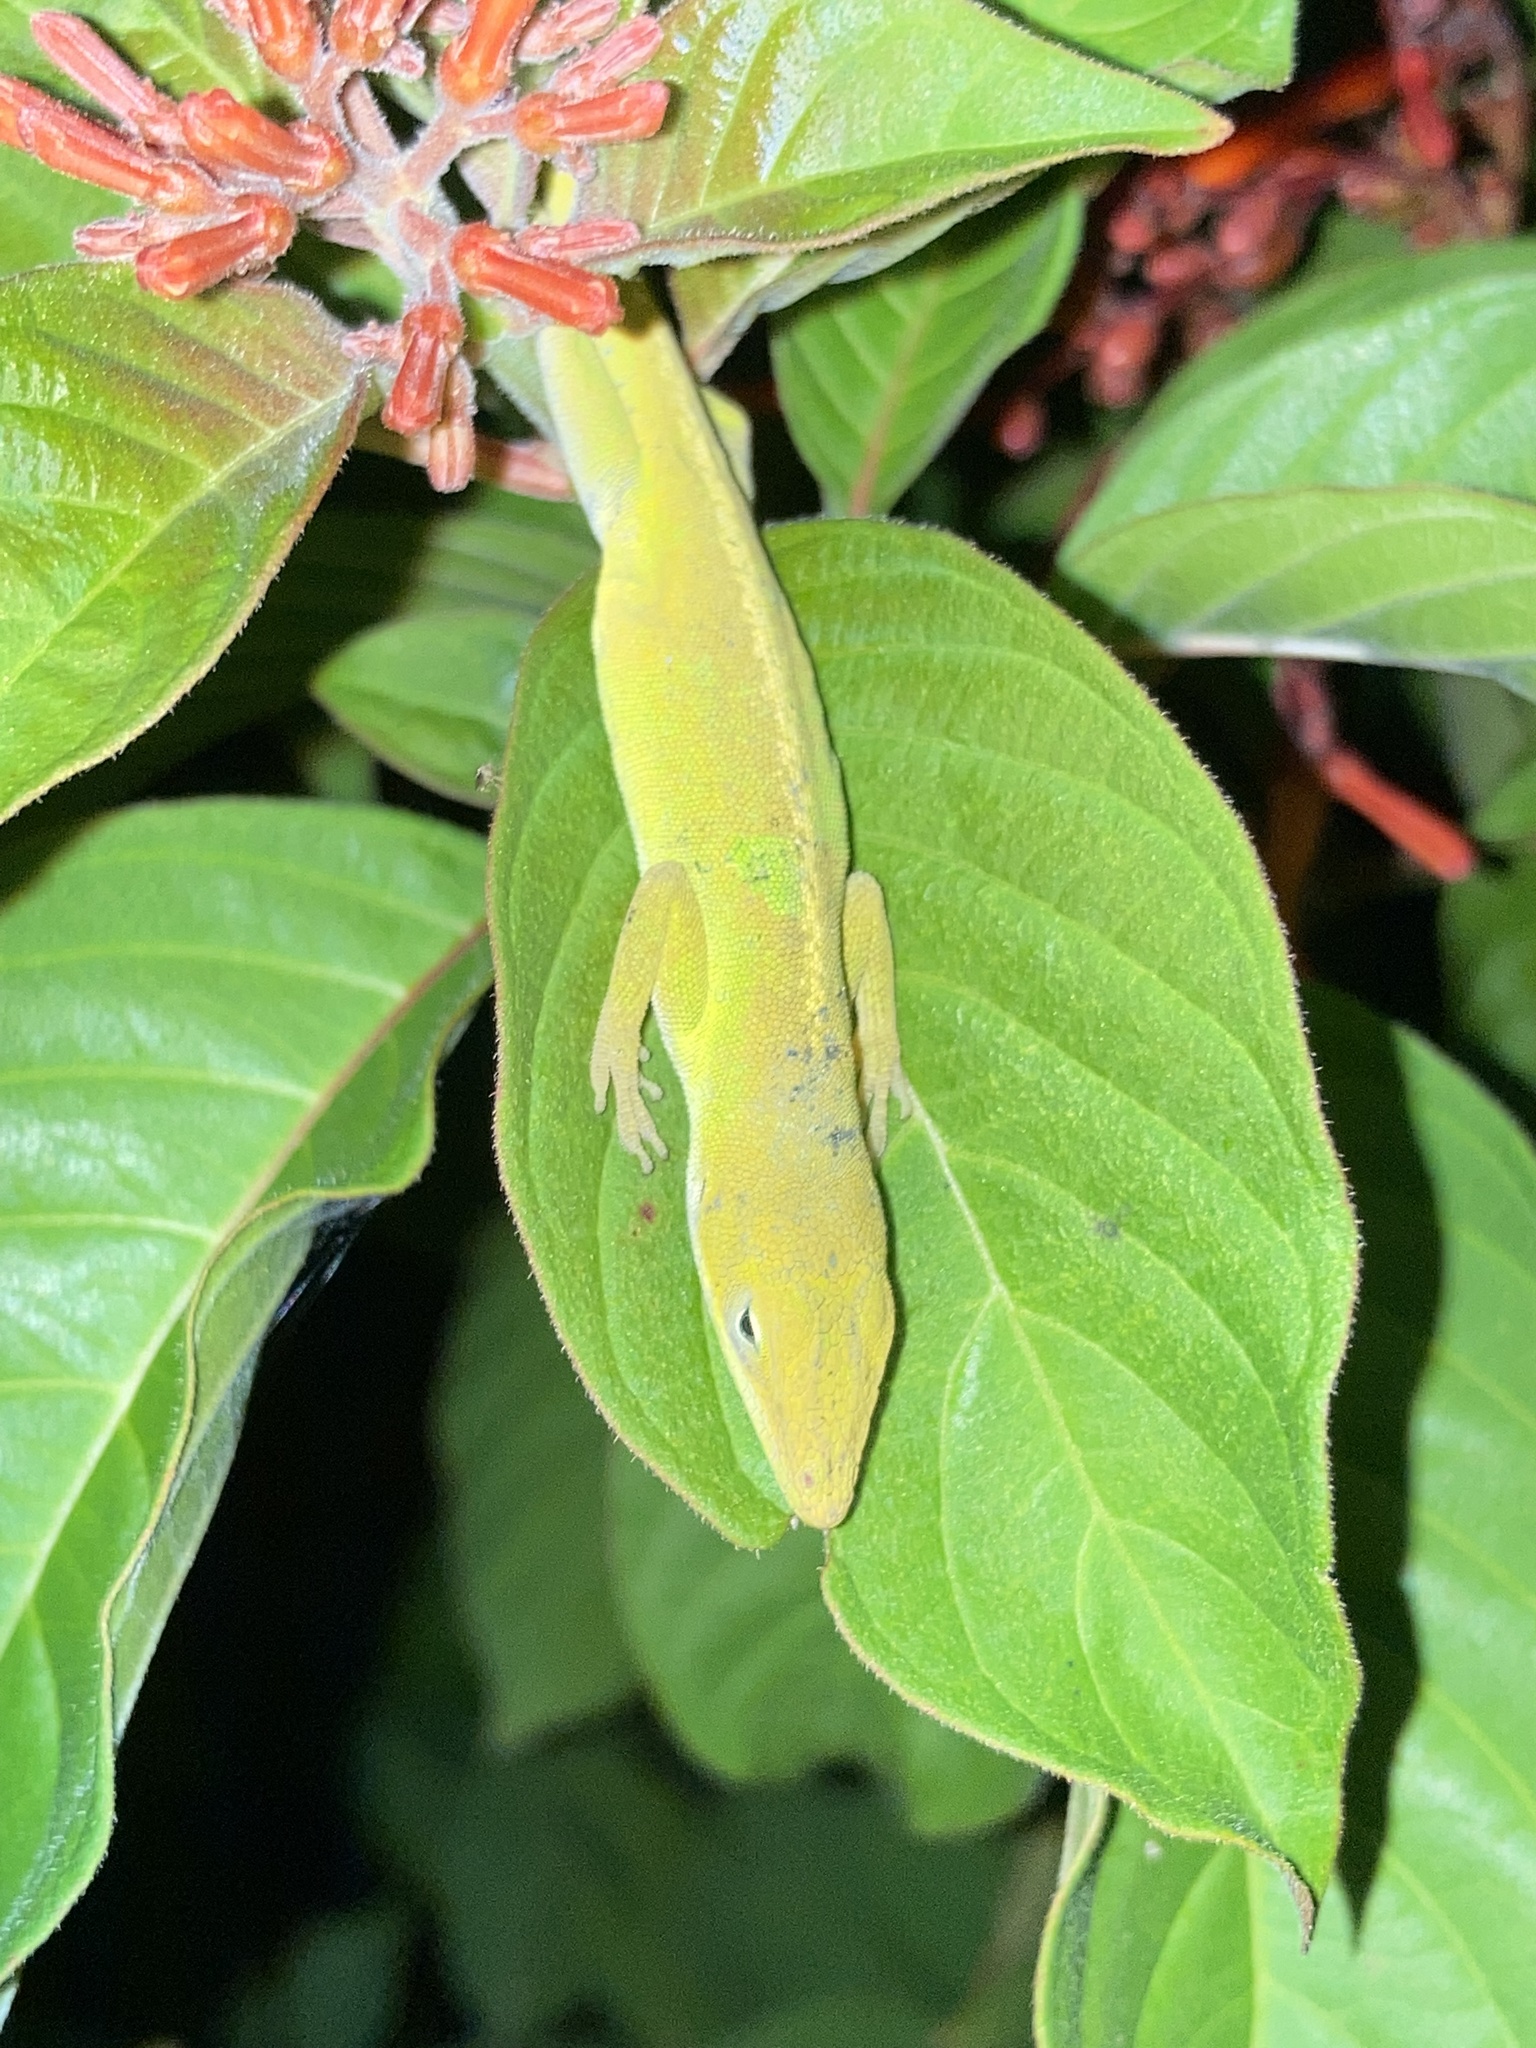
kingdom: Animalia
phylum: Chordata
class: Squamata
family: Dactyloidae
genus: Anolis
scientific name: Anolis carolinensis
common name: Green anole
